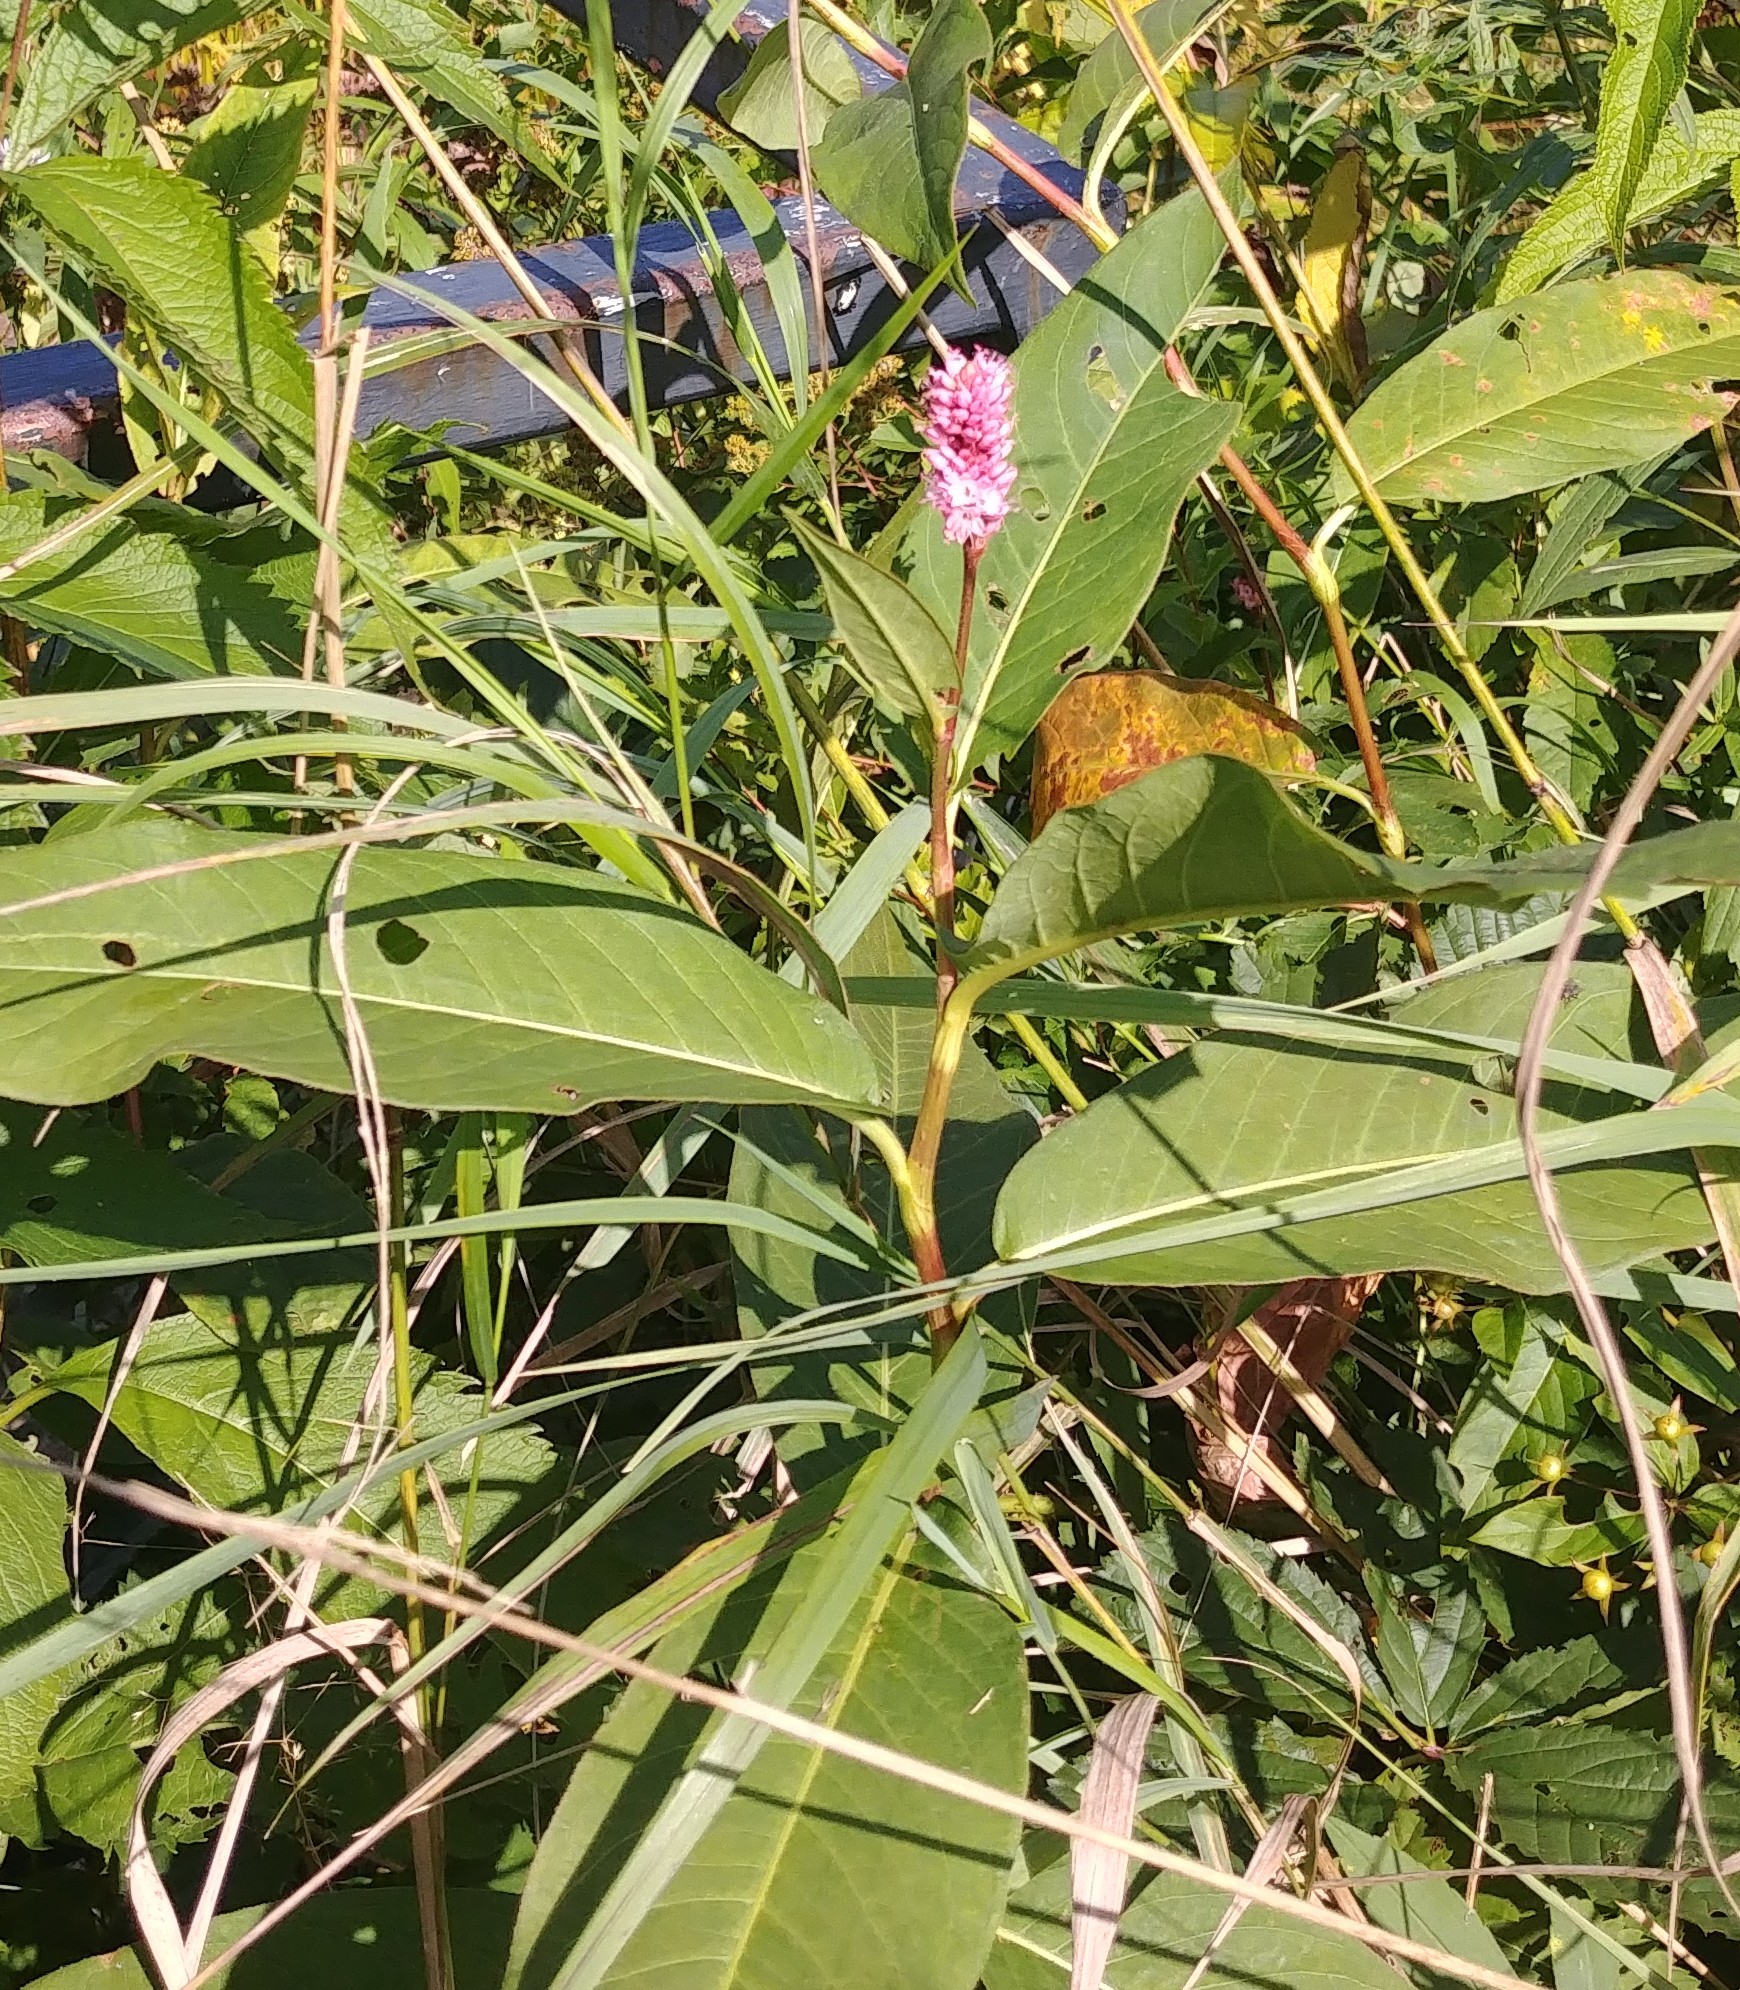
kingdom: Plantae
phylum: Tracheophyta
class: Magnoliopsida
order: Caryophyllales
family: Polygonaceae
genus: Persicaria
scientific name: Persicaria amphibia
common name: Amphibious bistort
